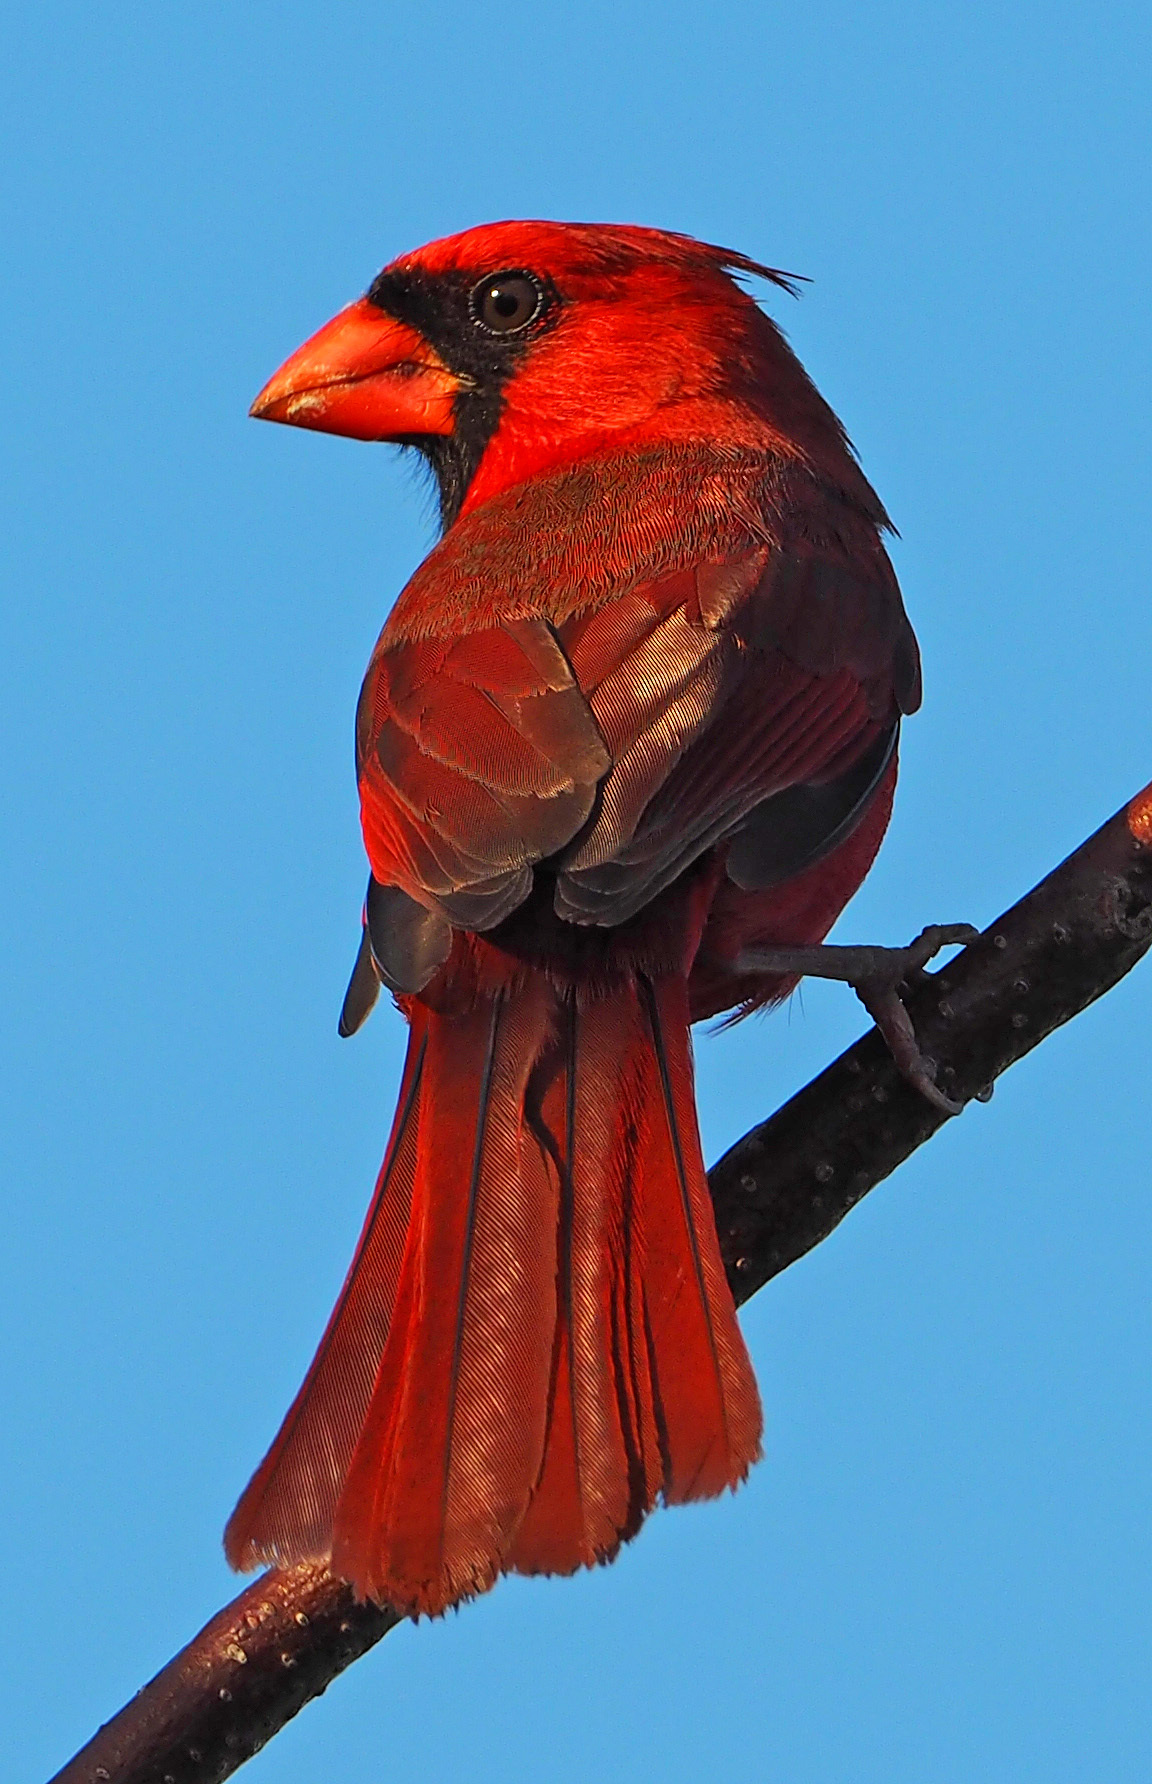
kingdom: Animalia
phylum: Chordata
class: Aves
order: Passeriformes
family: Cardinalidae
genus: Cardinalis
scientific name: Cardinalis cardinalis
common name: Northern cardinal
